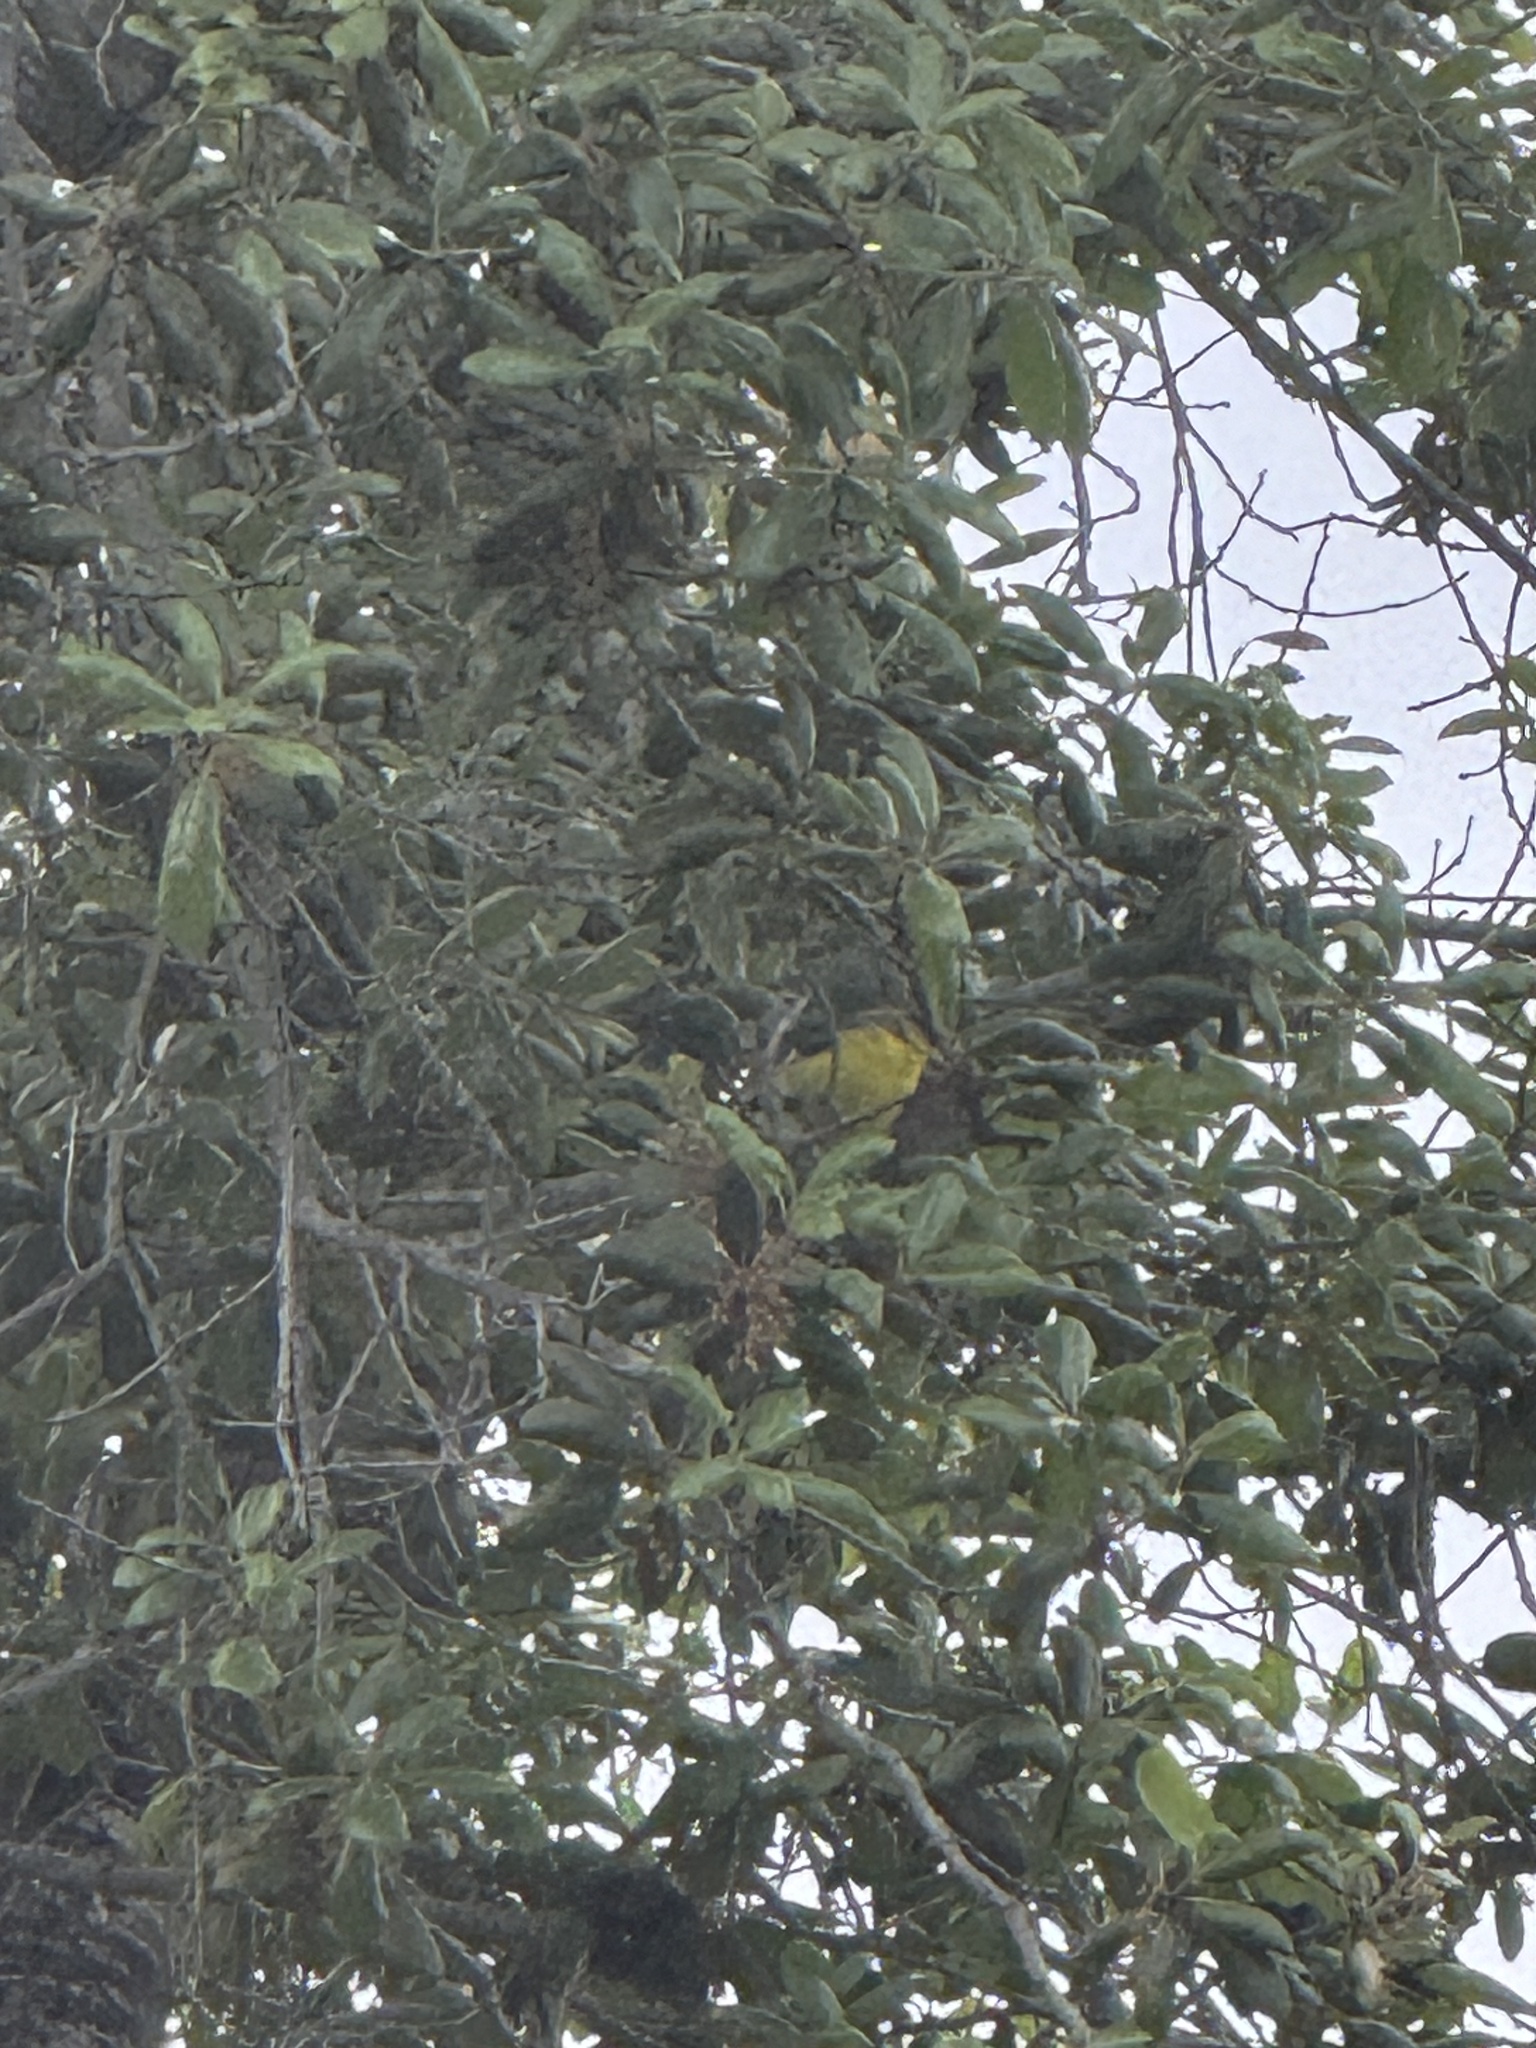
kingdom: Animalia
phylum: Chordata
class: Aves
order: Passeriformes
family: Fringillidae
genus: Spinus
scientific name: Spinus psaltria
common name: Lesser goldfinch
